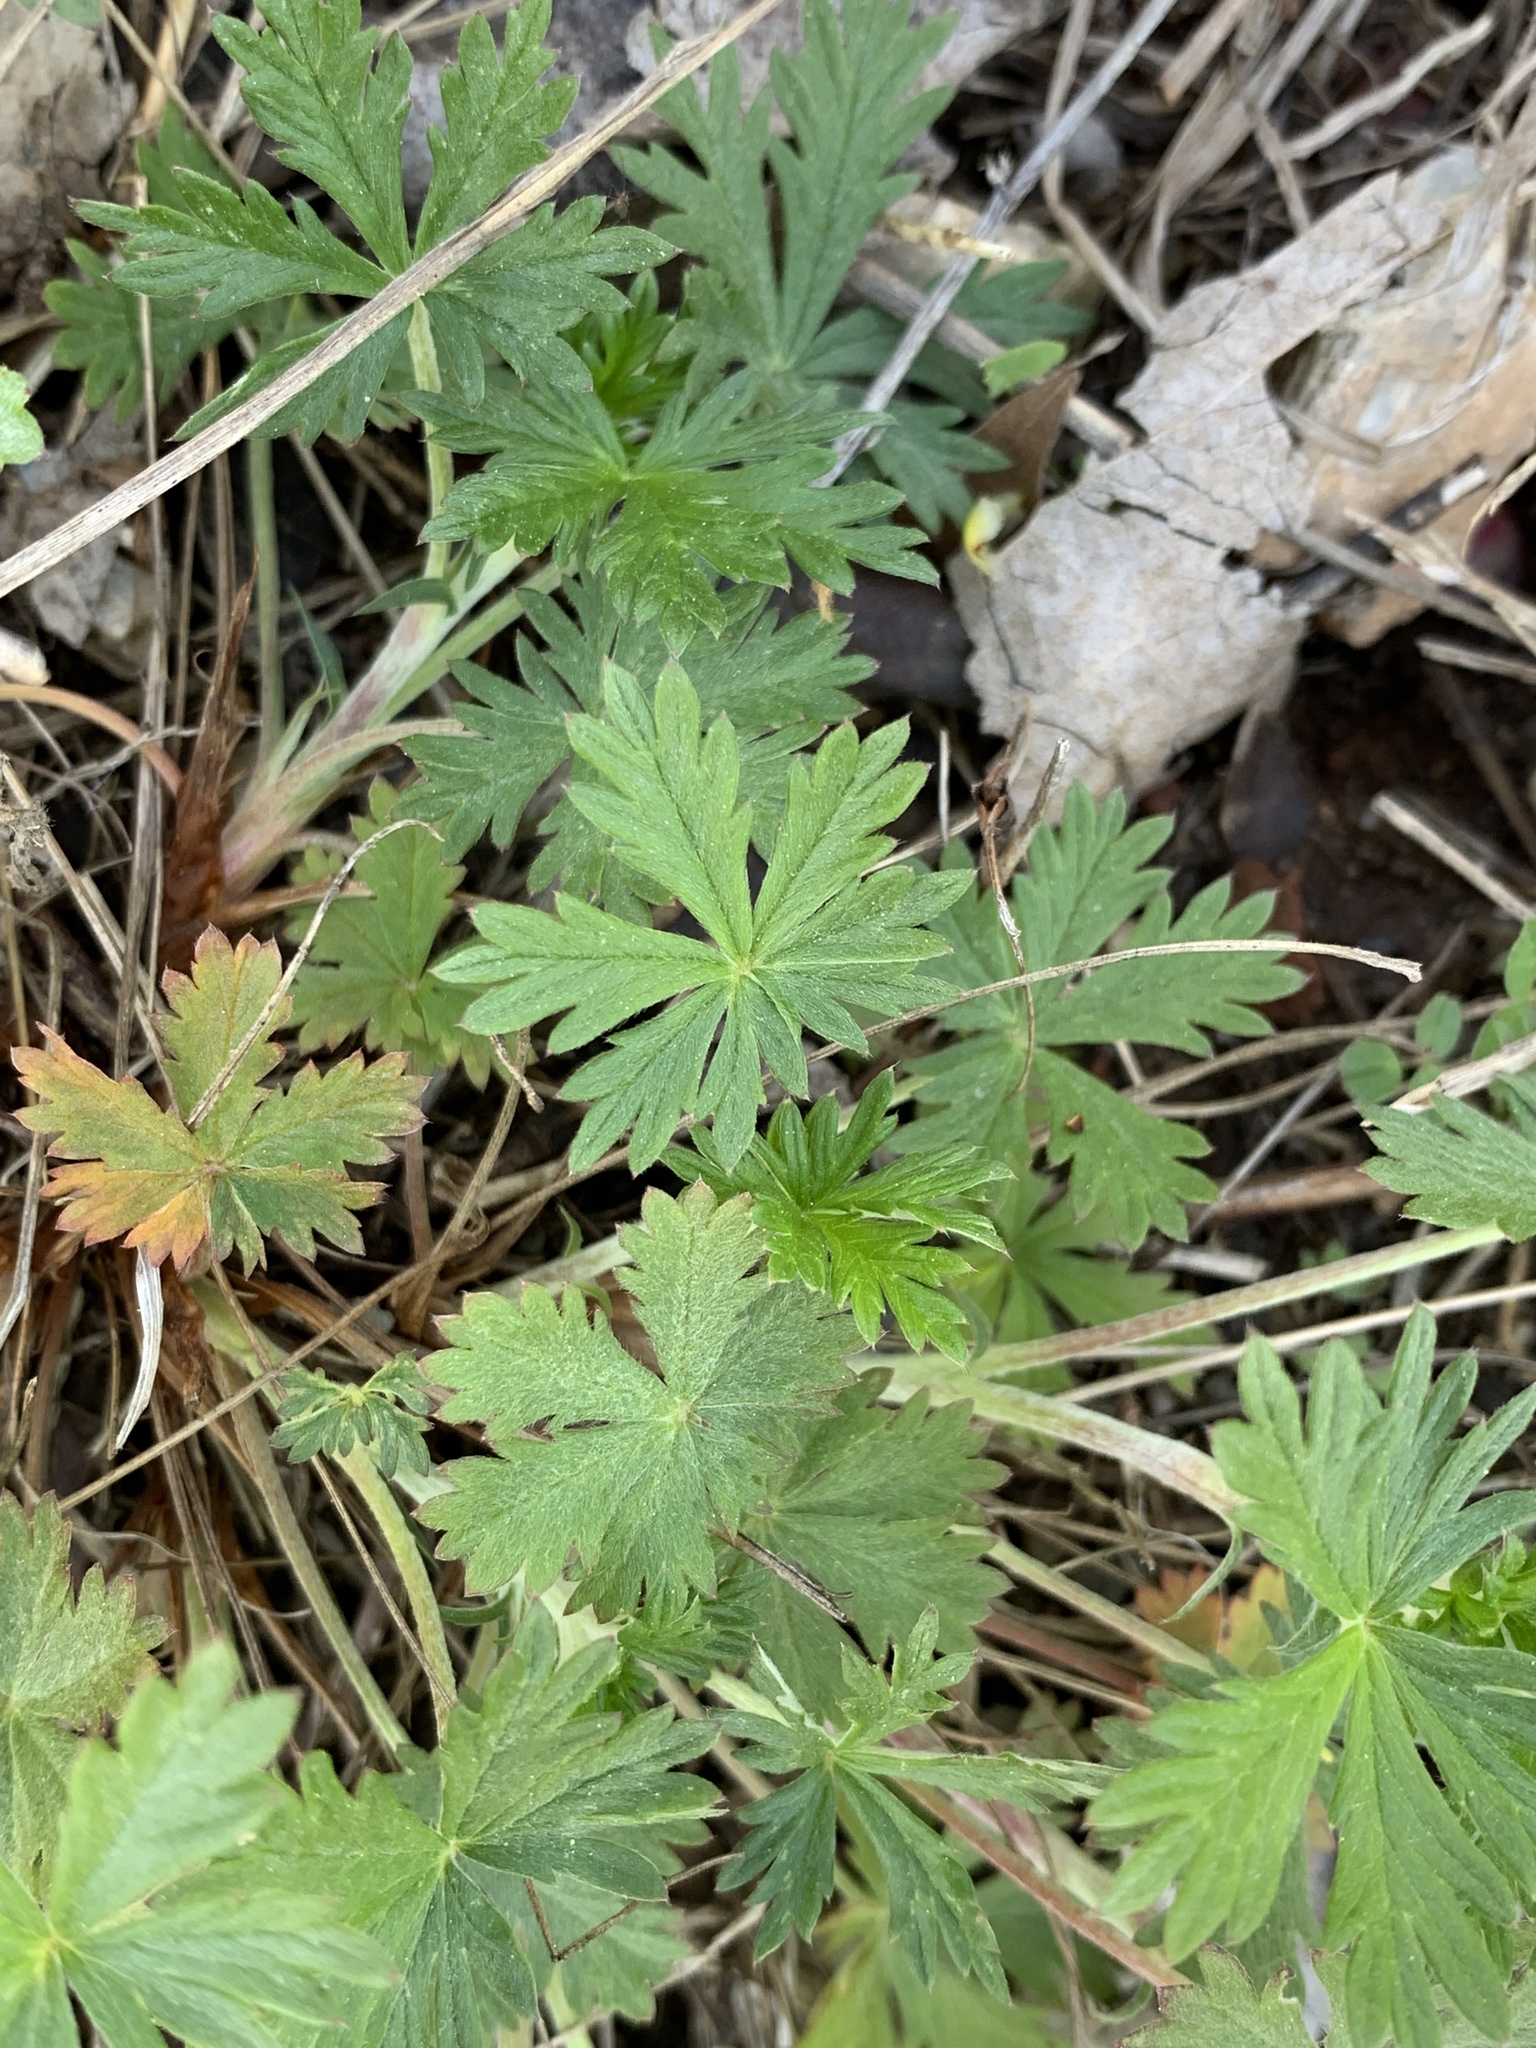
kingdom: Plantae
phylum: Tracheophyta
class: Magnoliopsida
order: Rosales
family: Rosaceae
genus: Potentilla
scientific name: Potentilla argentea
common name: Hoary cinquefoil
